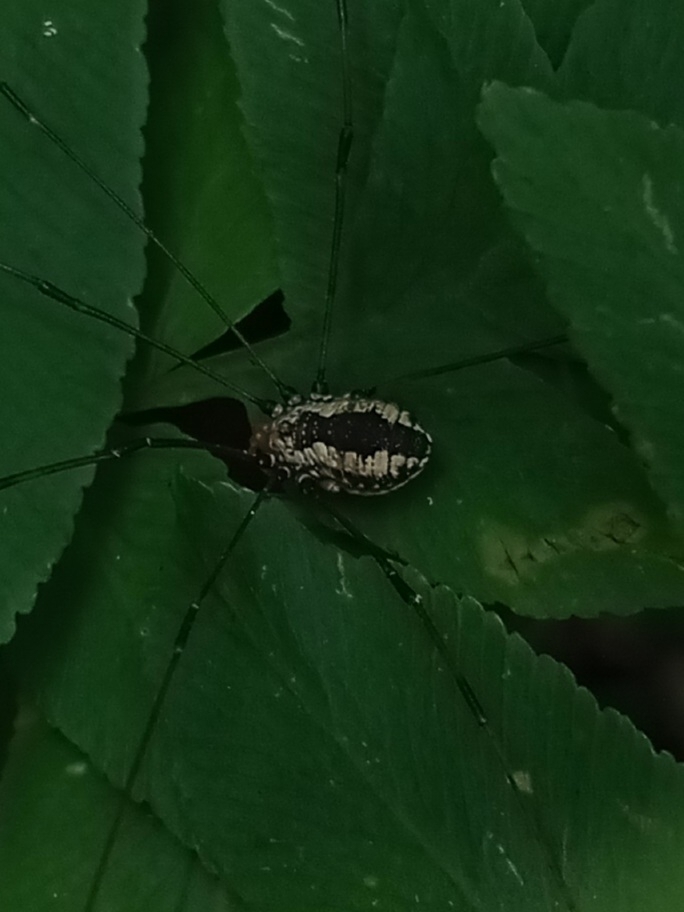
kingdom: Animalia
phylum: Arthropoda
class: Arachnida
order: Opiliones
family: Sclerosomatidae
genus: Leiobunum
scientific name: Leiobunum vittatum
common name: Eastern harvestman
